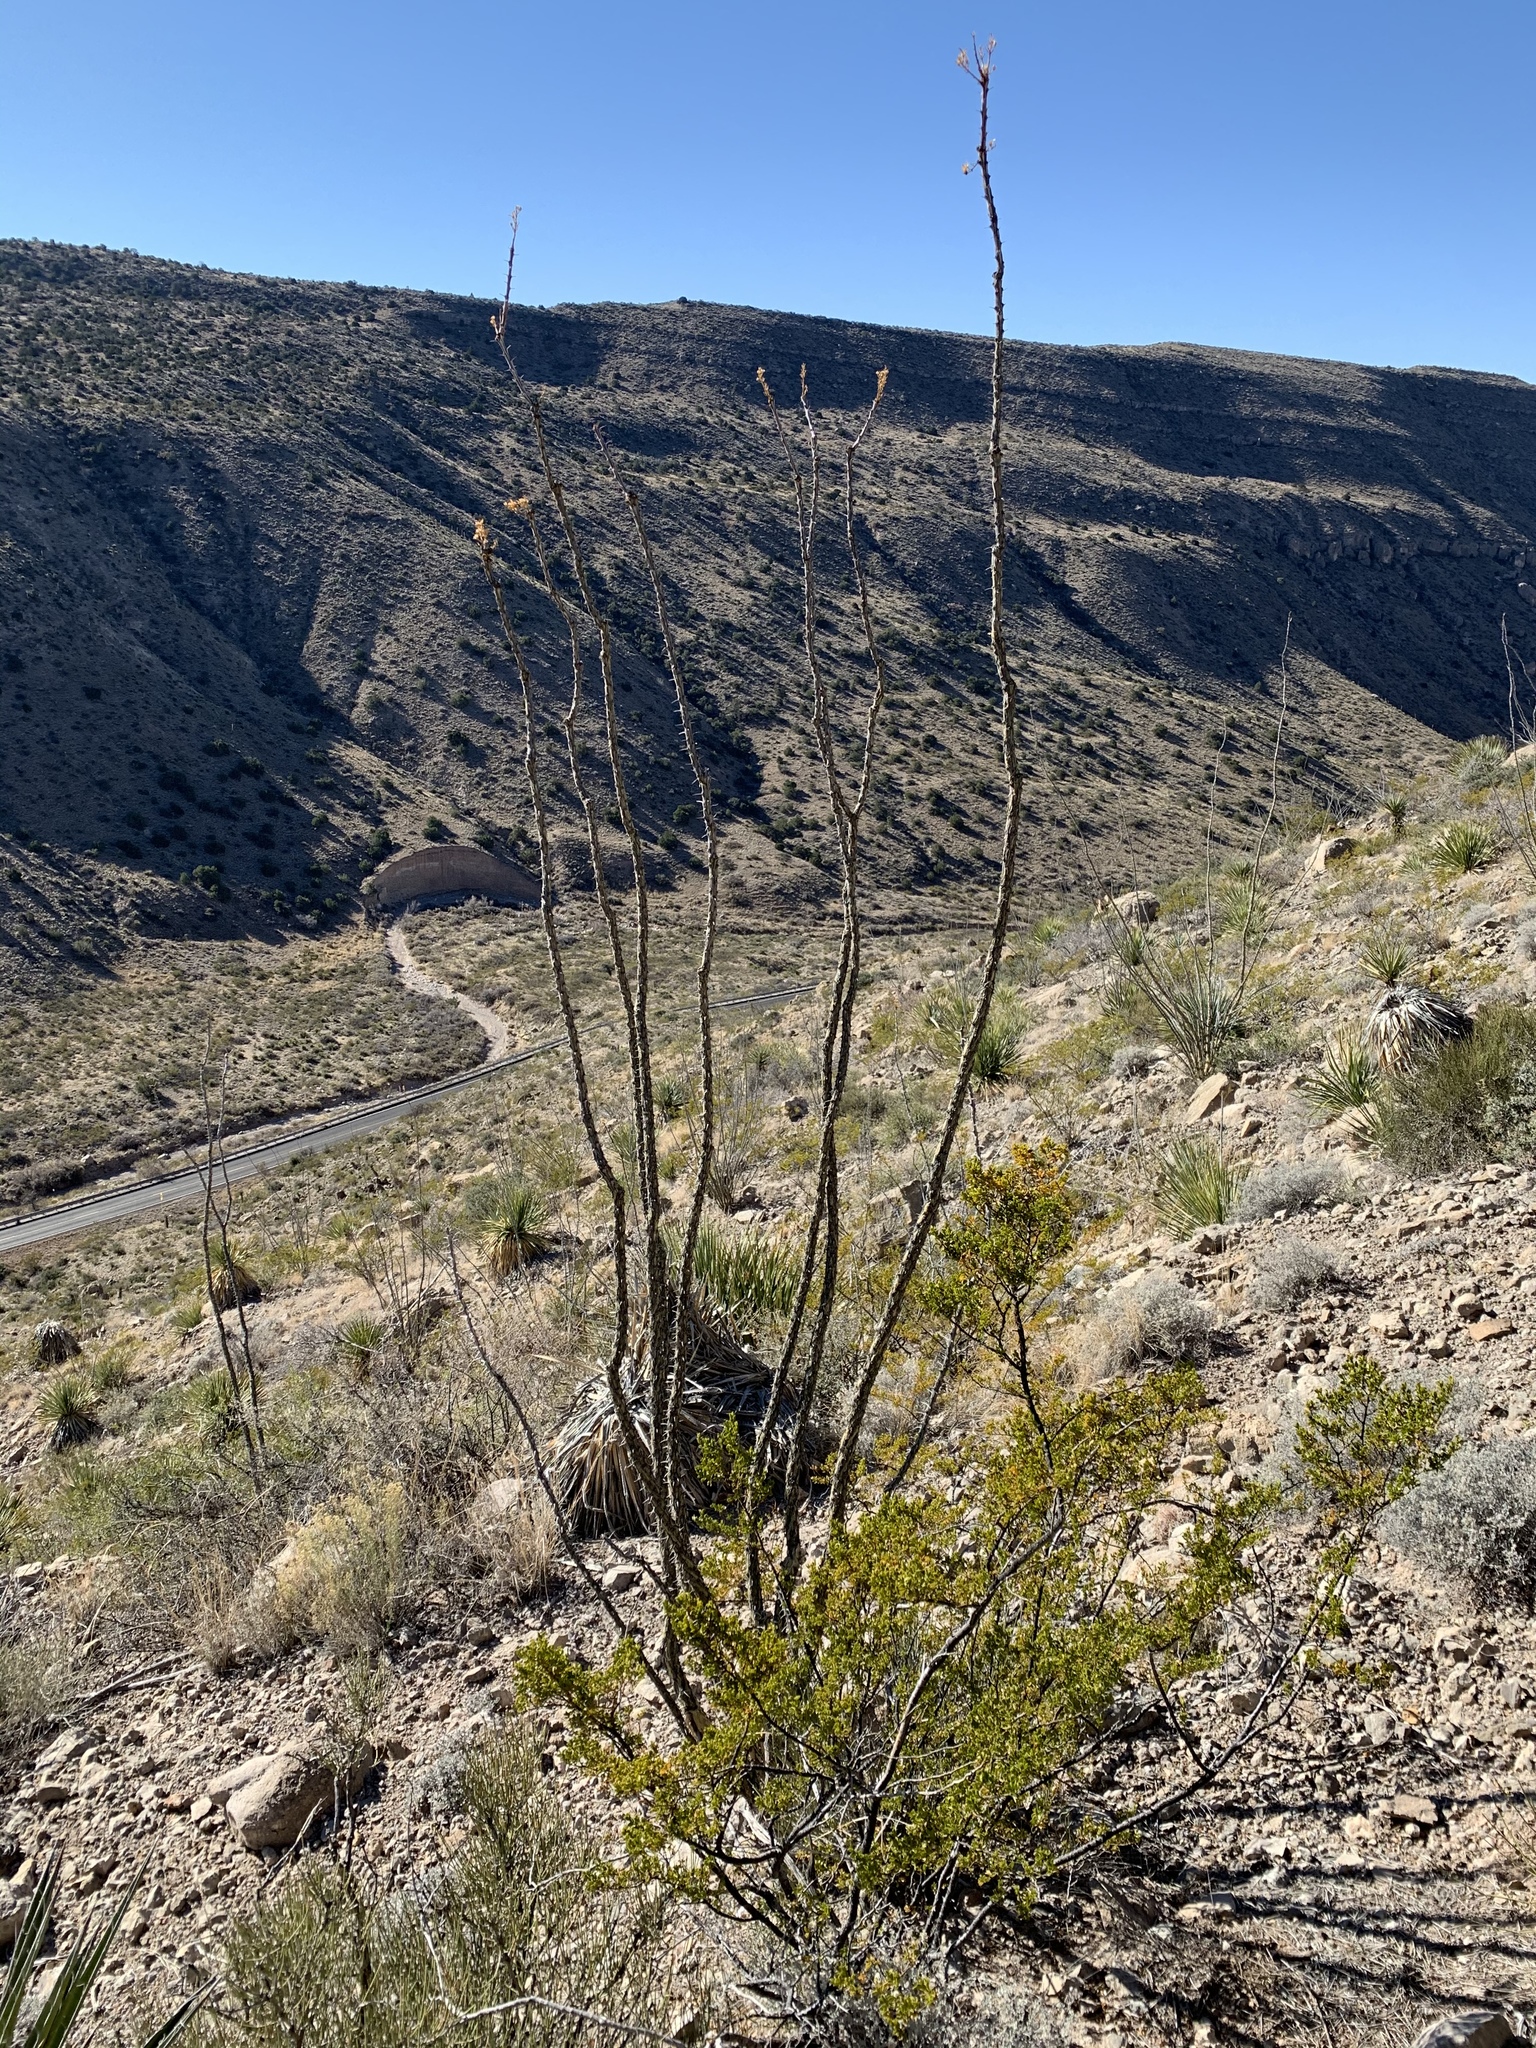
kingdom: Plantae
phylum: Tracheophyta
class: Magnoliopsida
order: Ericales
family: Fouquieriaceae
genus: Fouquieria
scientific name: Fouquieria splendens
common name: Vine-cactus
